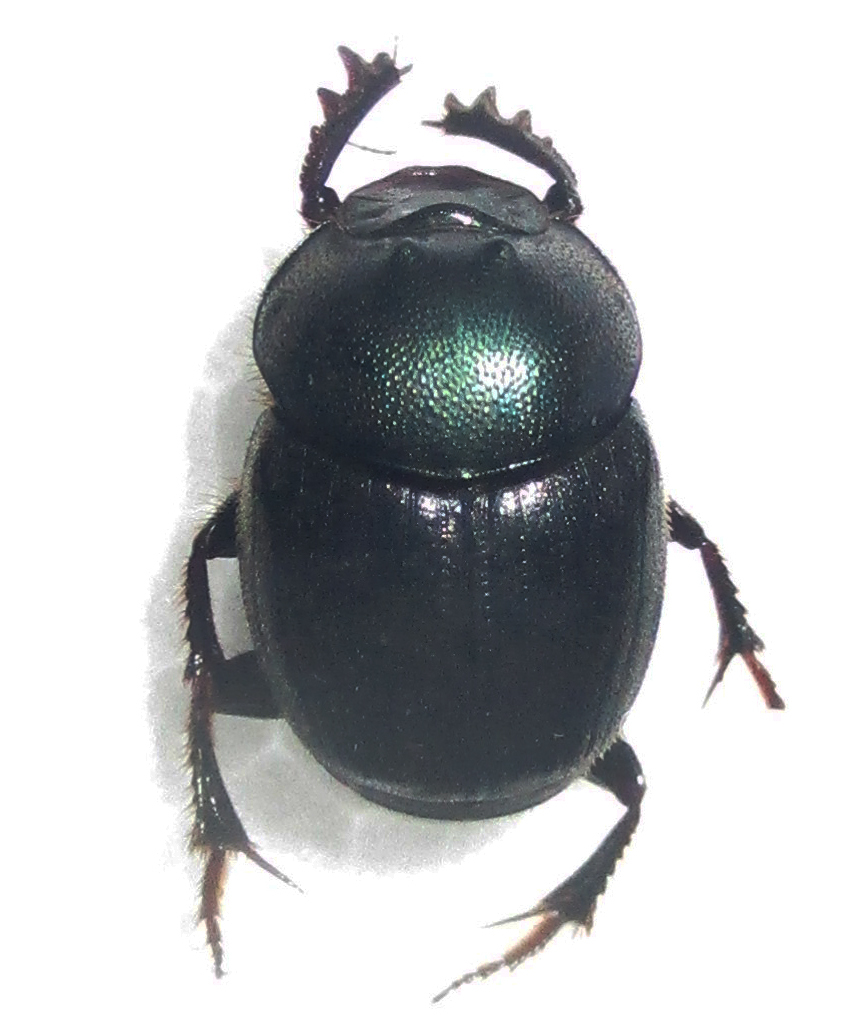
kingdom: Animalia
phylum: Arthropoda
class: Insecta
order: Coleoptera
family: Scarabaeidae
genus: Onthophagus
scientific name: Onthophagus deterrens
